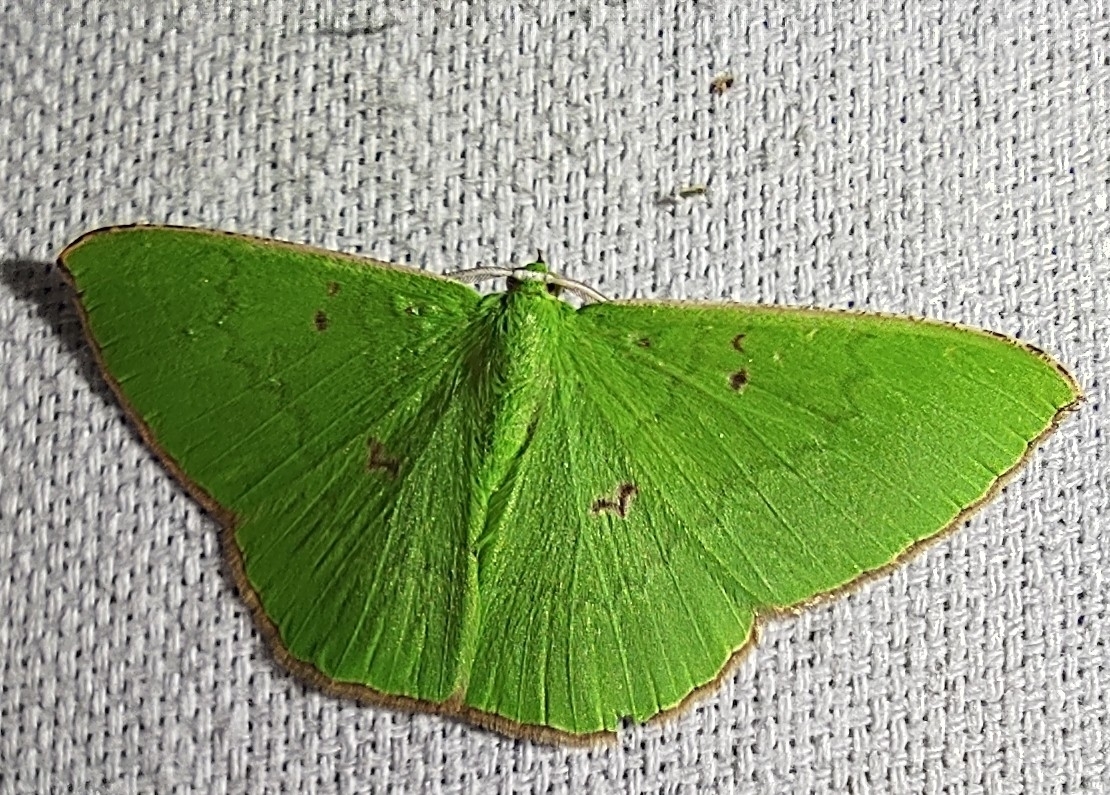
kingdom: Animalia
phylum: Arthropoda
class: Insecta
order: Lepidoptera
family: Geometridae
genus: Ornithospila
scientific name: Ornithospila avicularia
